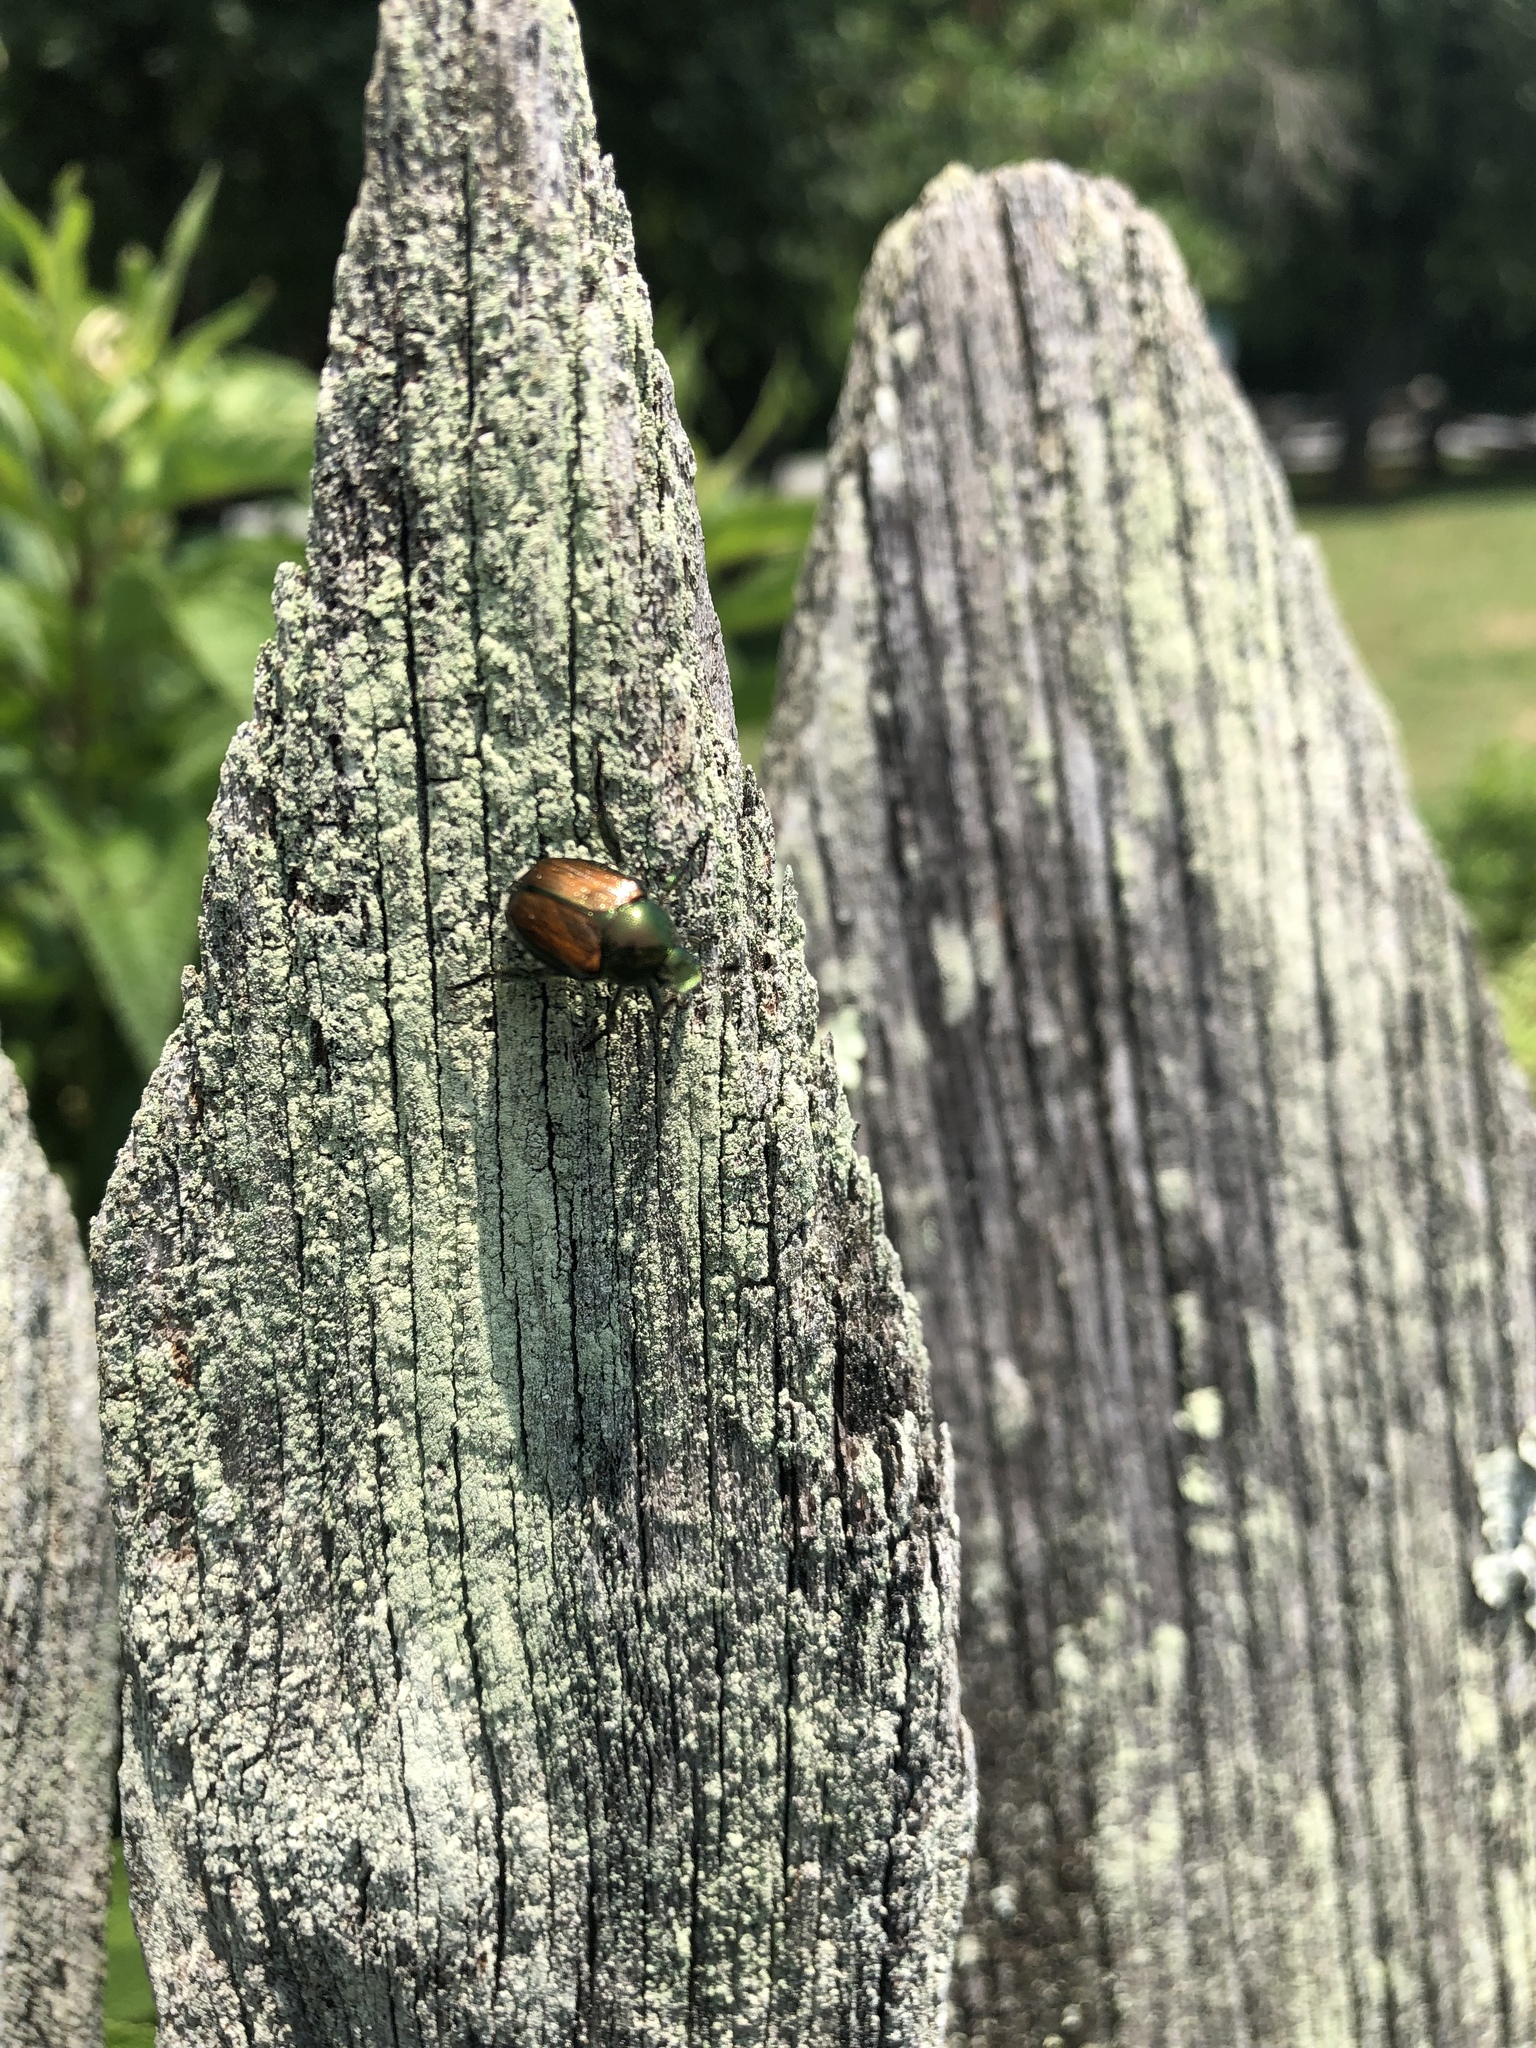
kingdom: Animalia
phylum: Arthropoda
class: Insecta
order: Coleoptera
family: Scarabaeidae
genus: Popillia
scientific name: Popillia japonica
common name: Japanese beetle
